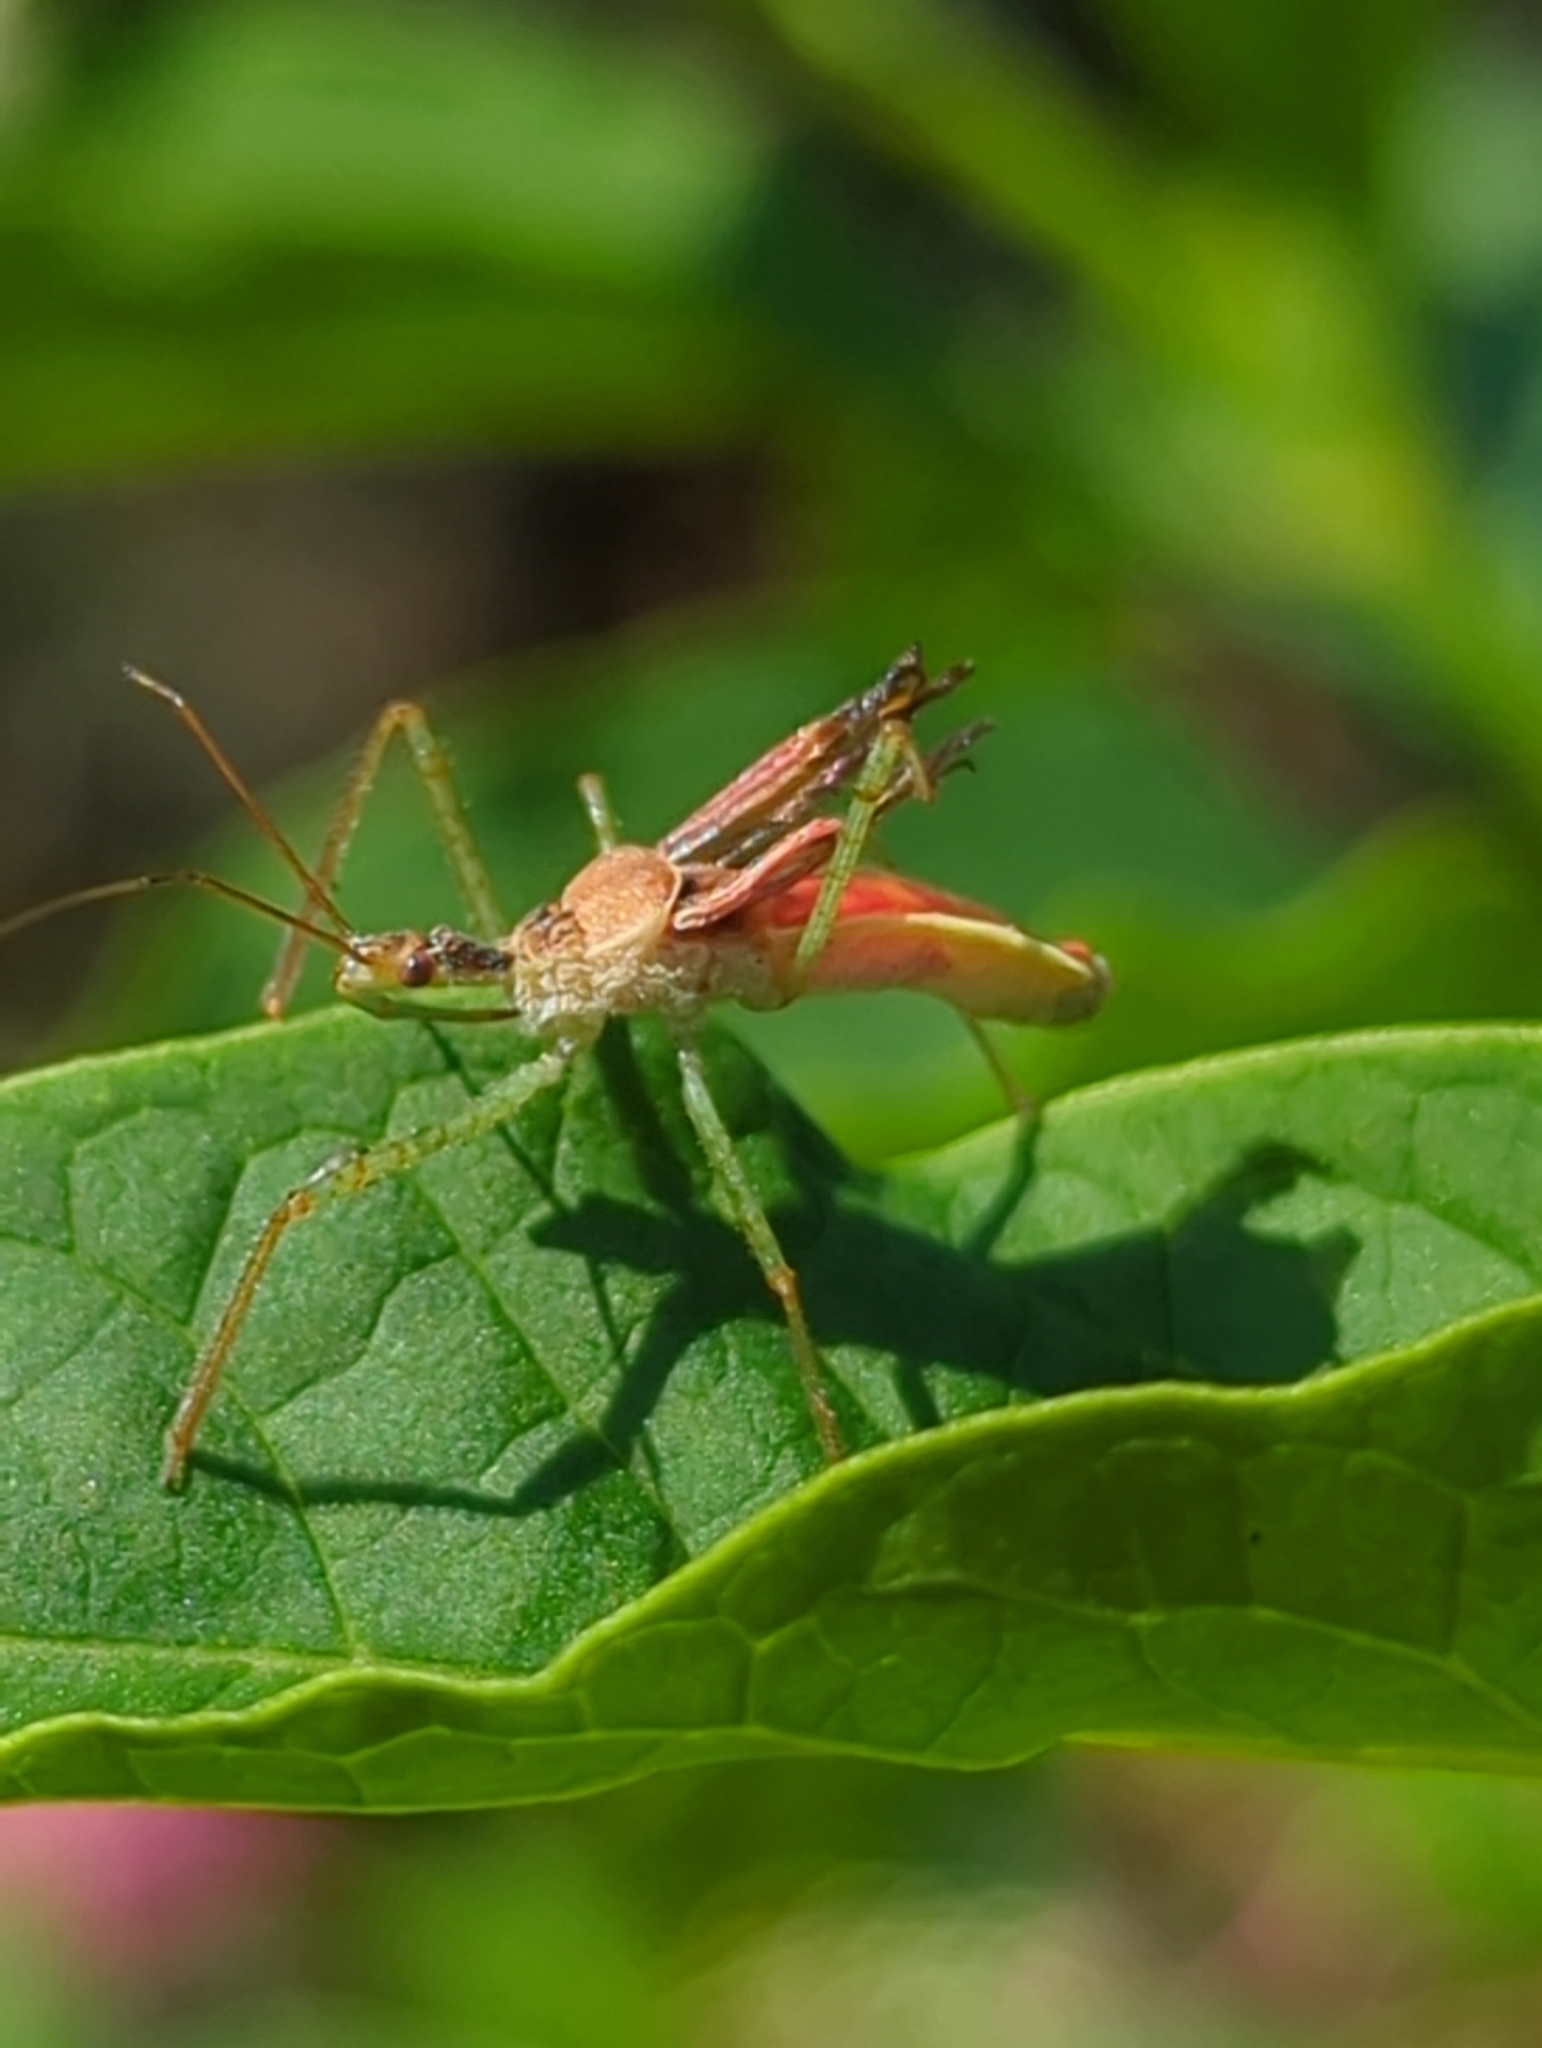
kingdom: Animalia
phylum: Arthropoda
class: Insecta
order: Hemiptera
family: Reduviidae
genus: Zelus
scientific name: Zelus renardii
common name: Assassin bug
